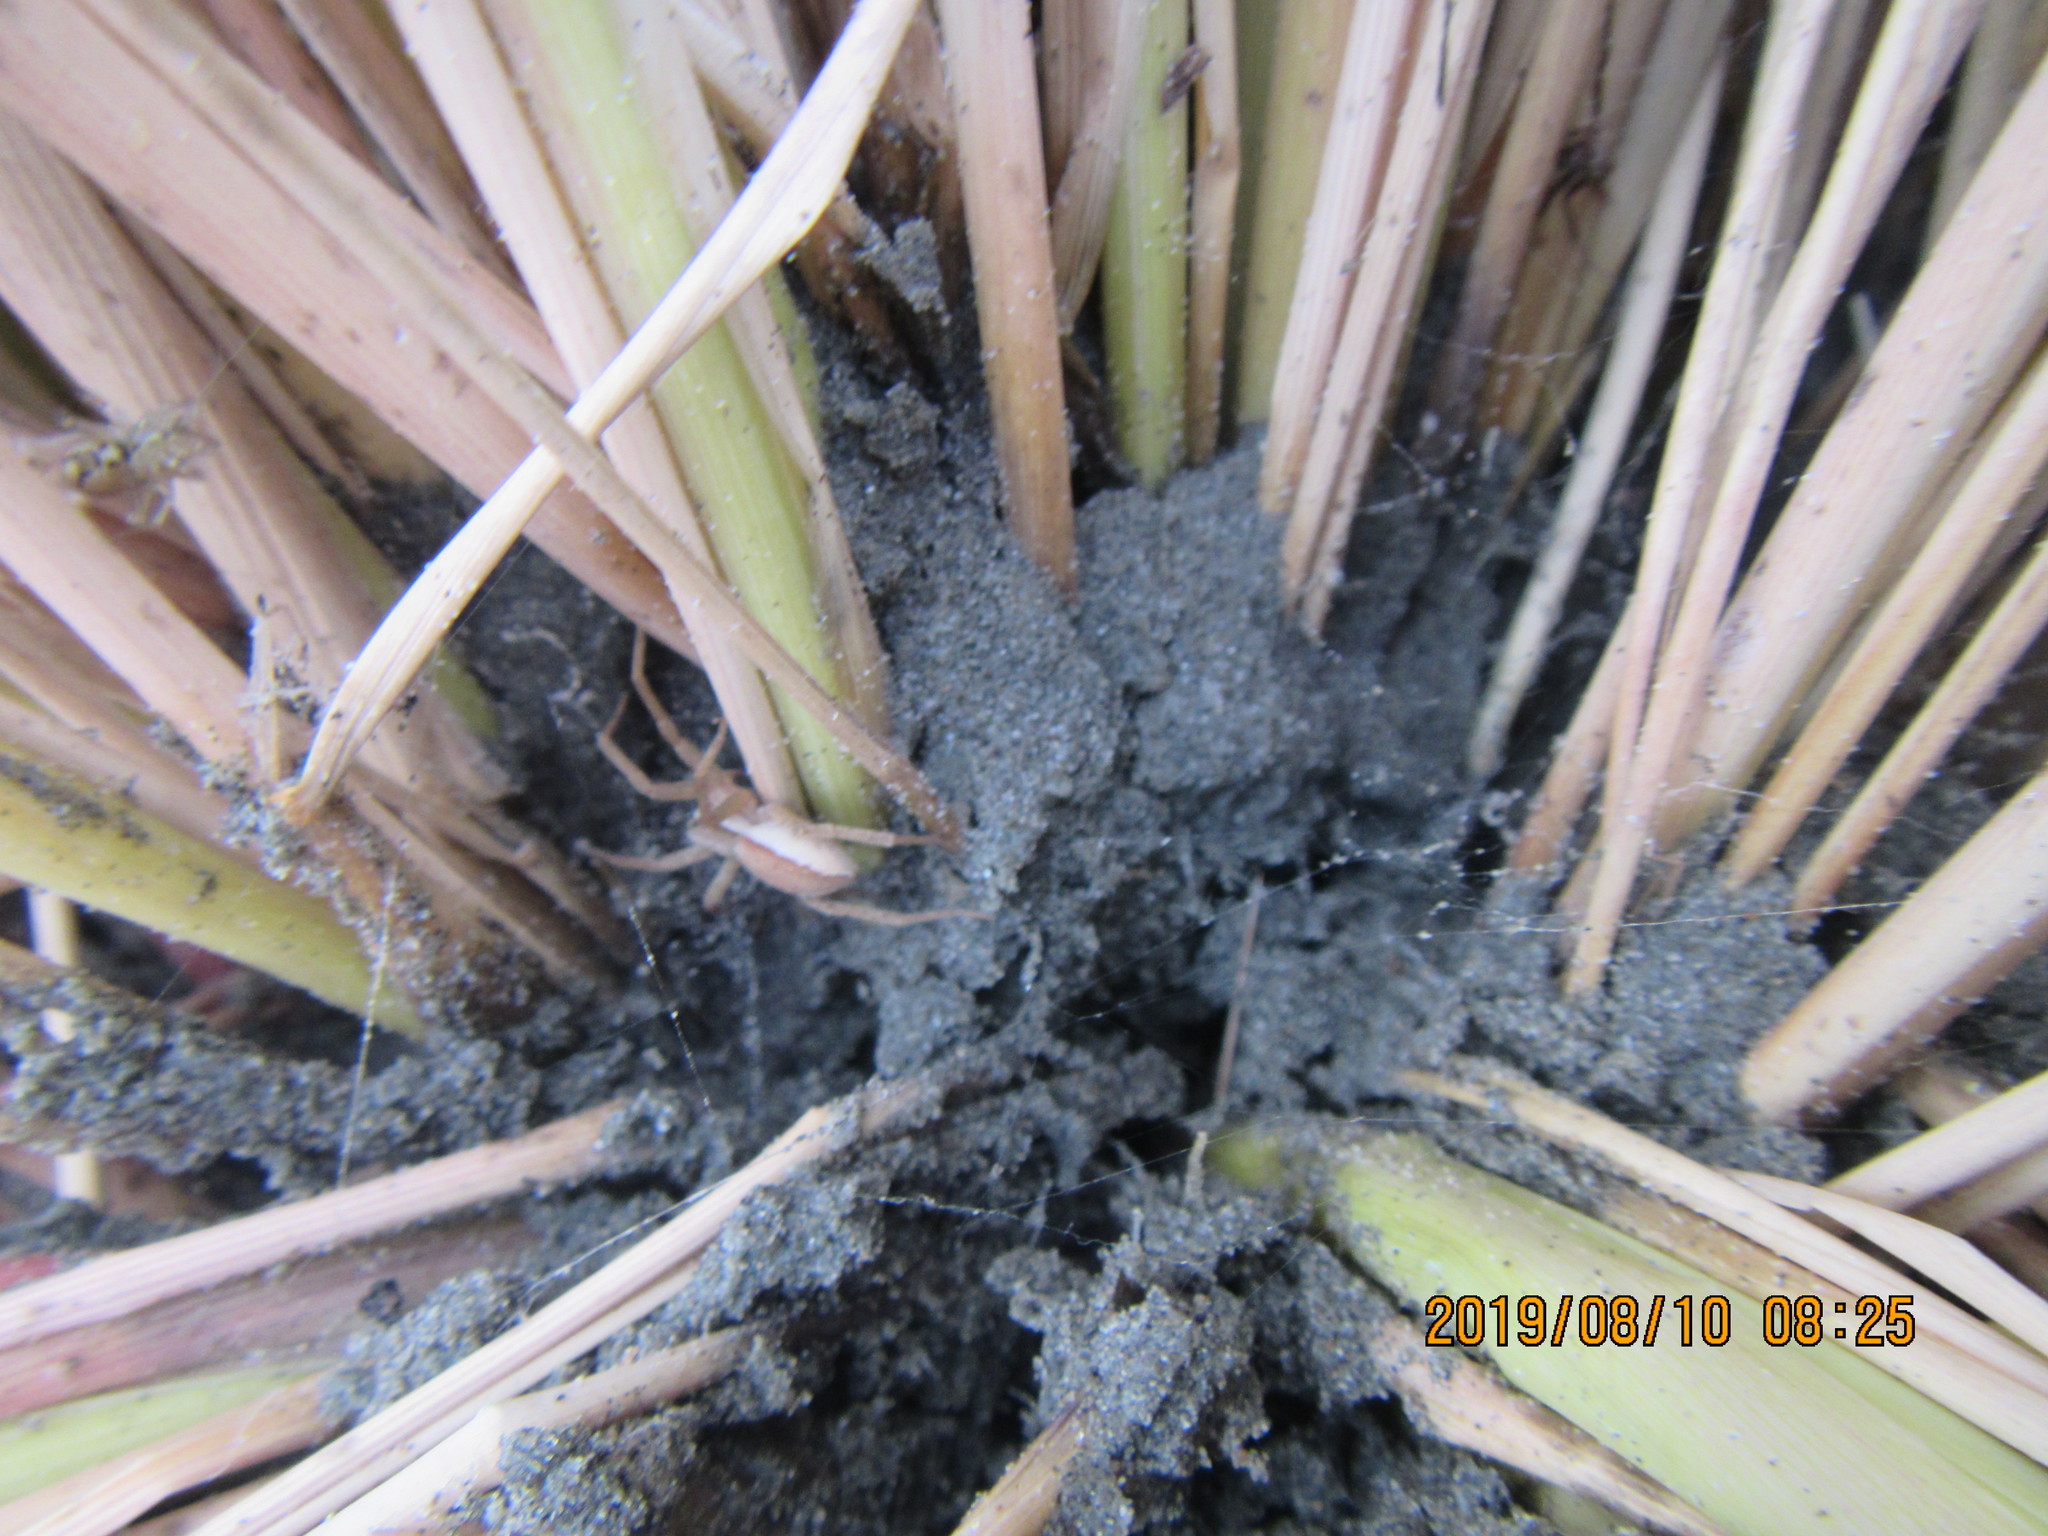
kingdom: Animalia
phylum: Arthropoda
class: Arachnida
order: Araneae
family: Pisauridae
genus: Dolomedes
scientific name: Dolomedes minor
